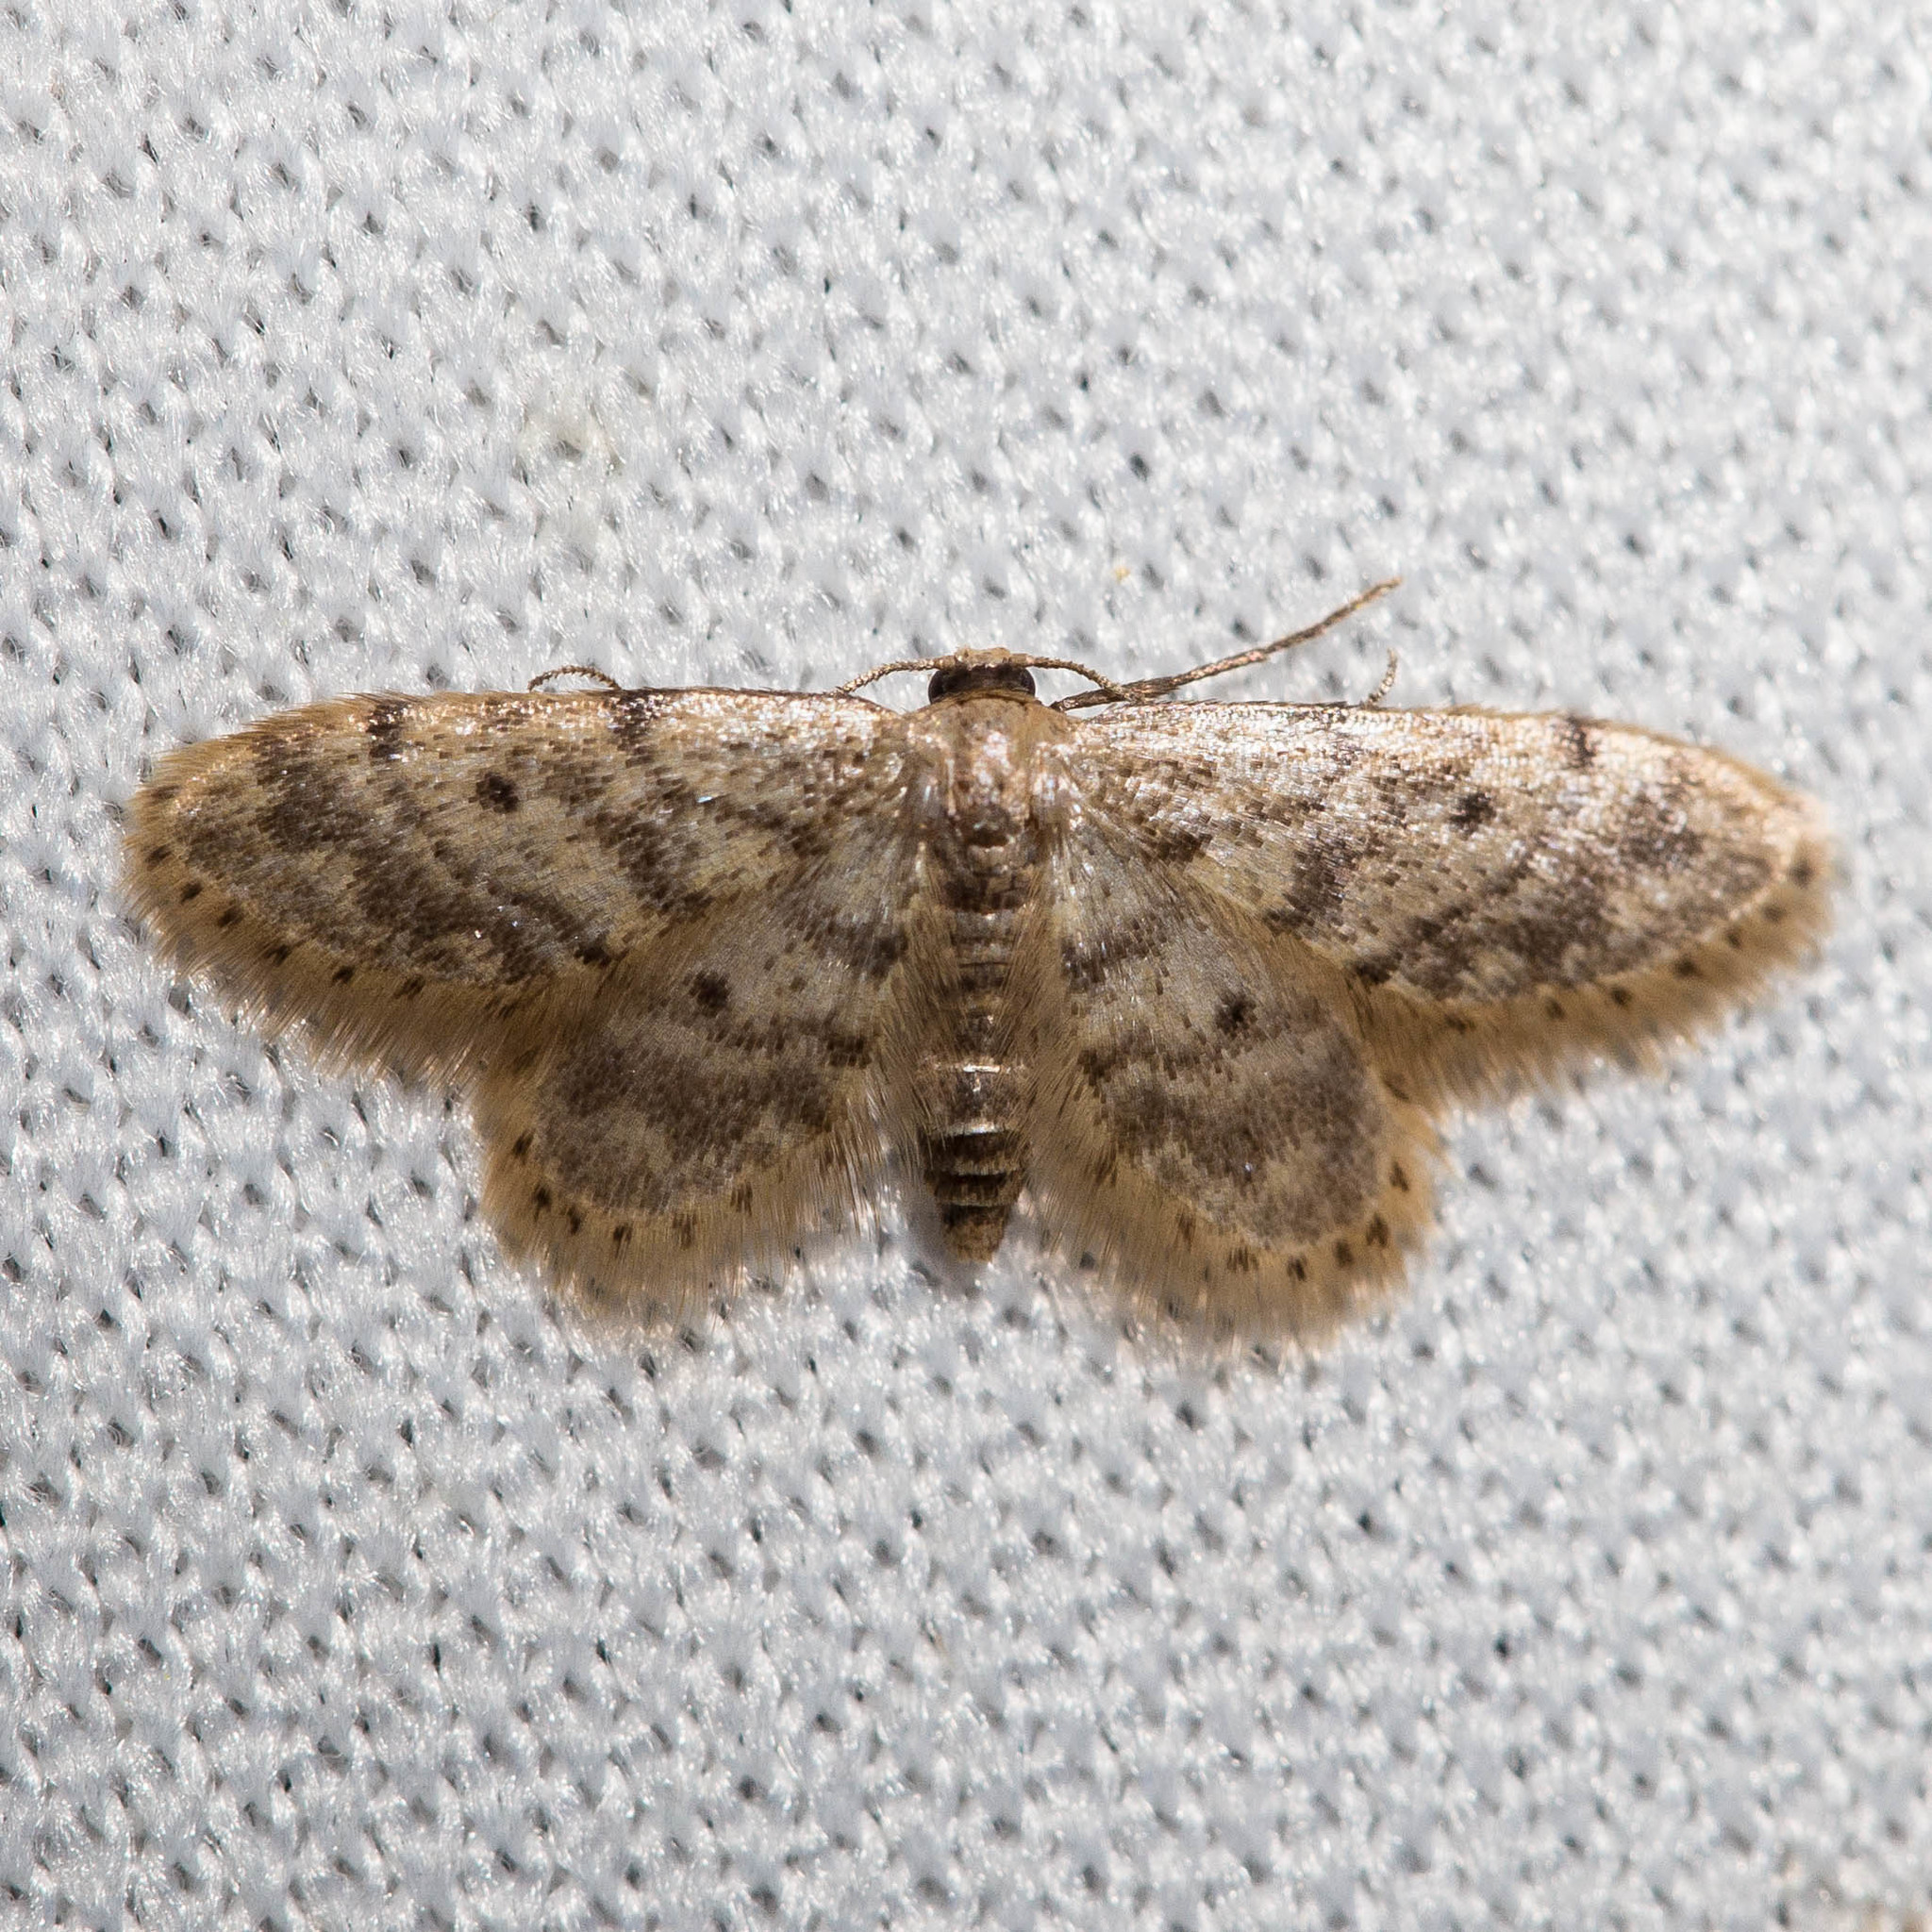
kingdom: Animalia
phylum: Arthropoda
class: Insecta
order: Lepidoptera
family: Geometridae
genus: Idaea
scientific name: Idaea bonifata
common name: Fortunate wave
